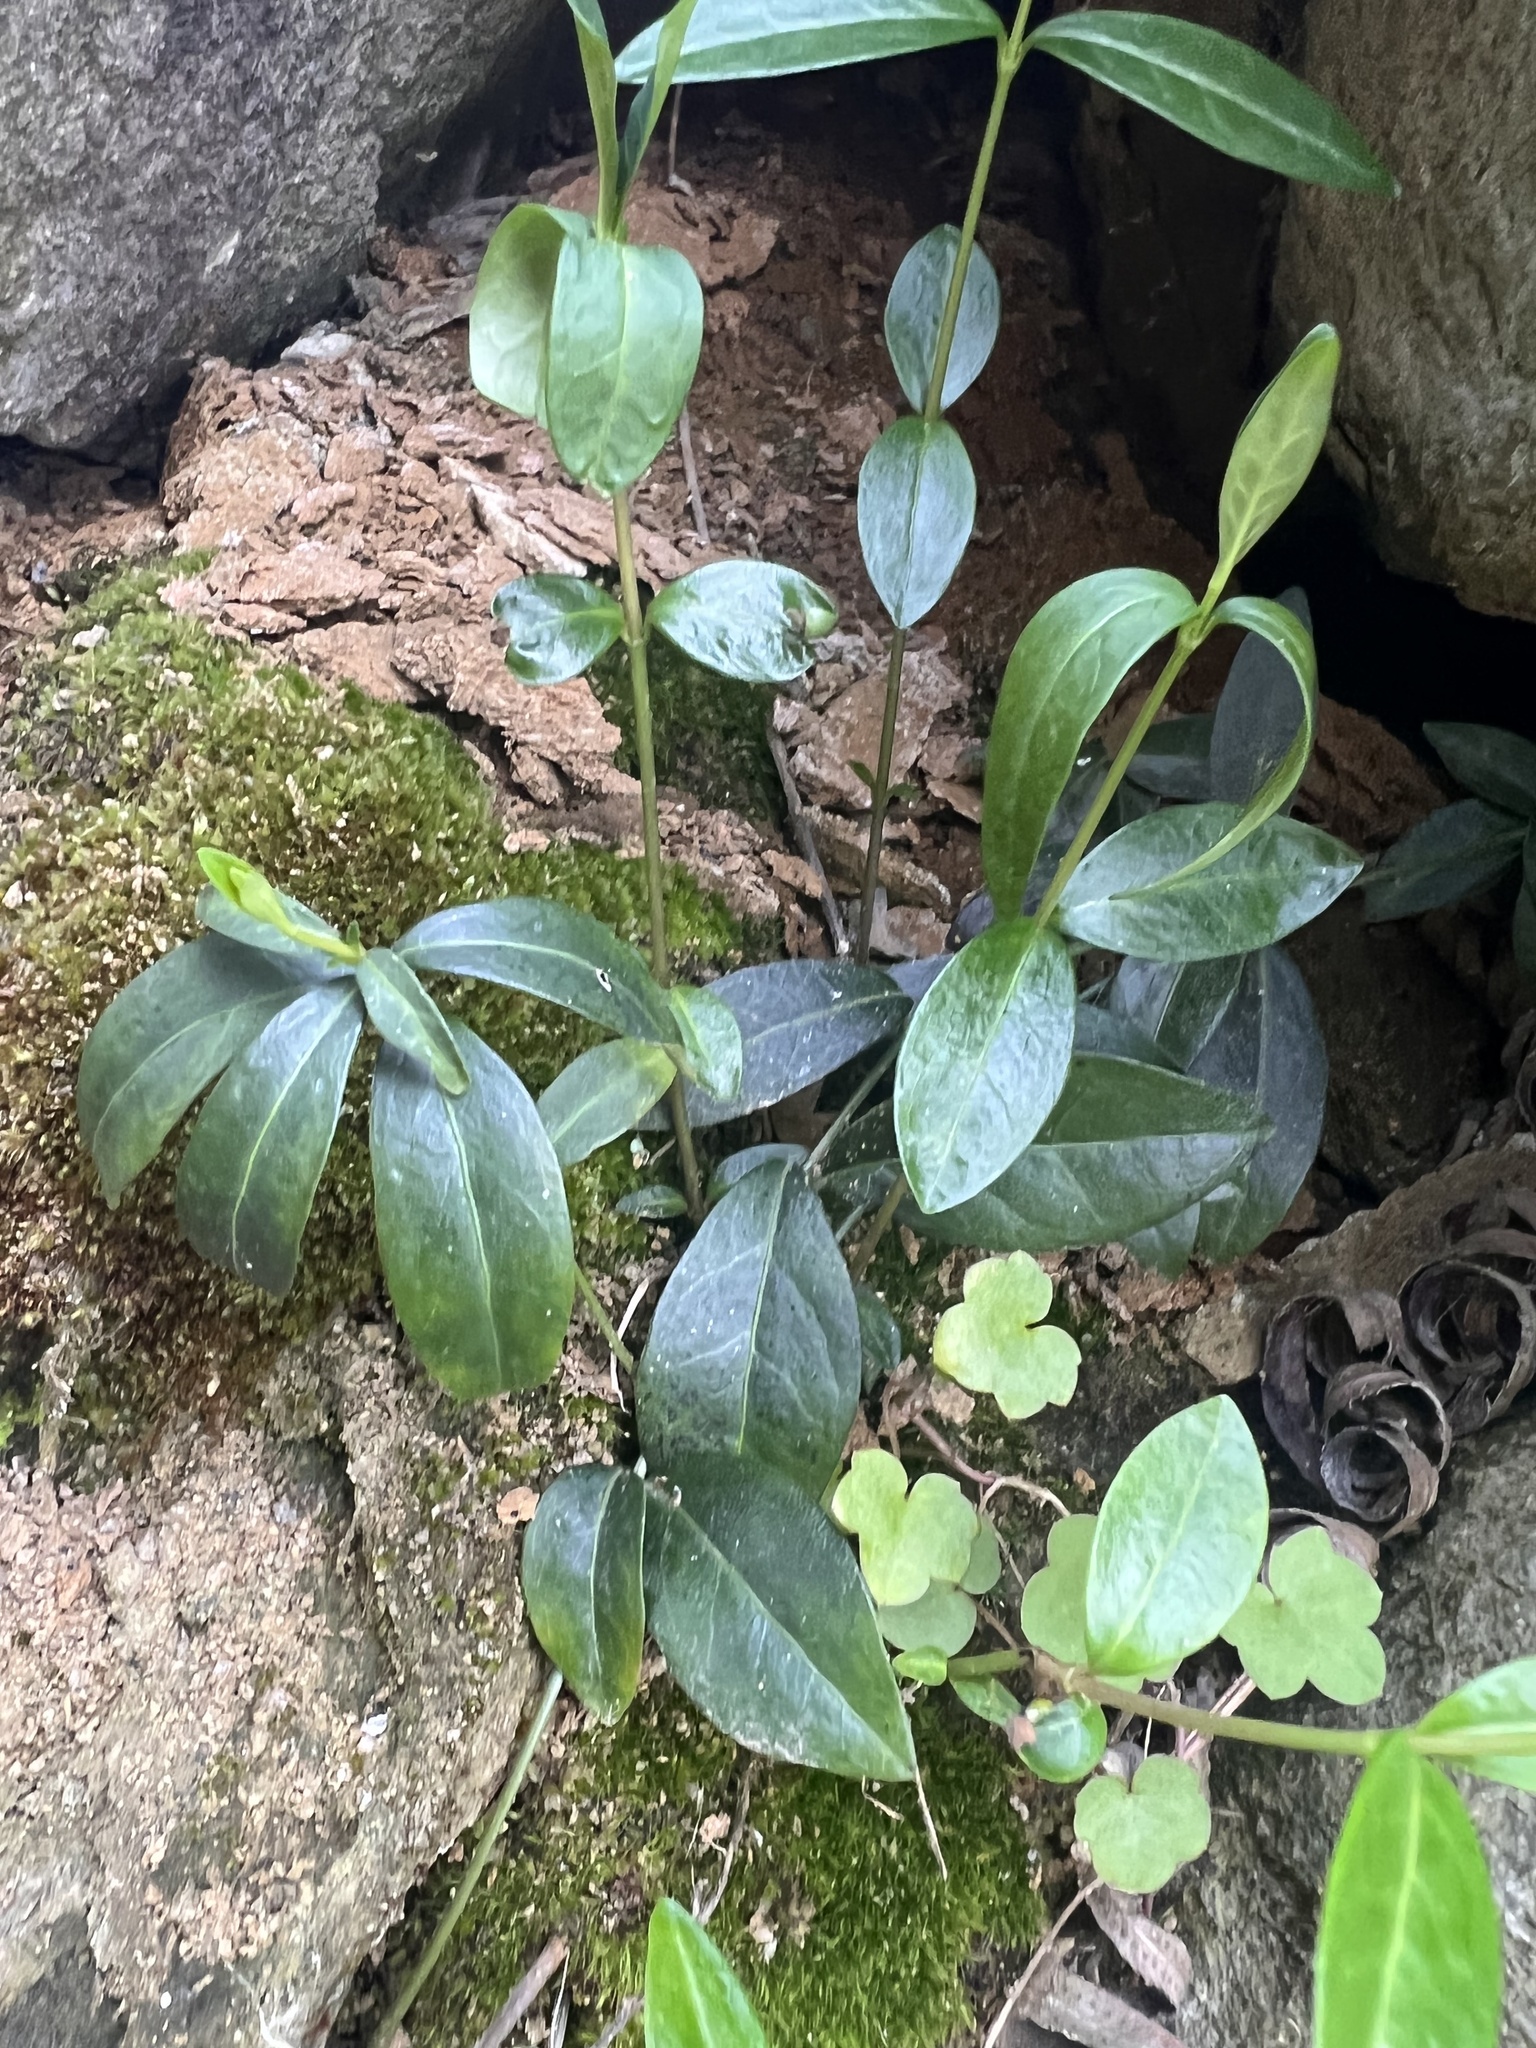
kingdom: Plantae
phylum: Tracheophyta
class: Magnoliopsida
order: Gentianales
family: Apocynaceae
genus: Vinca
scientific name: Vinca minor
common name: Lesser periwinkle
